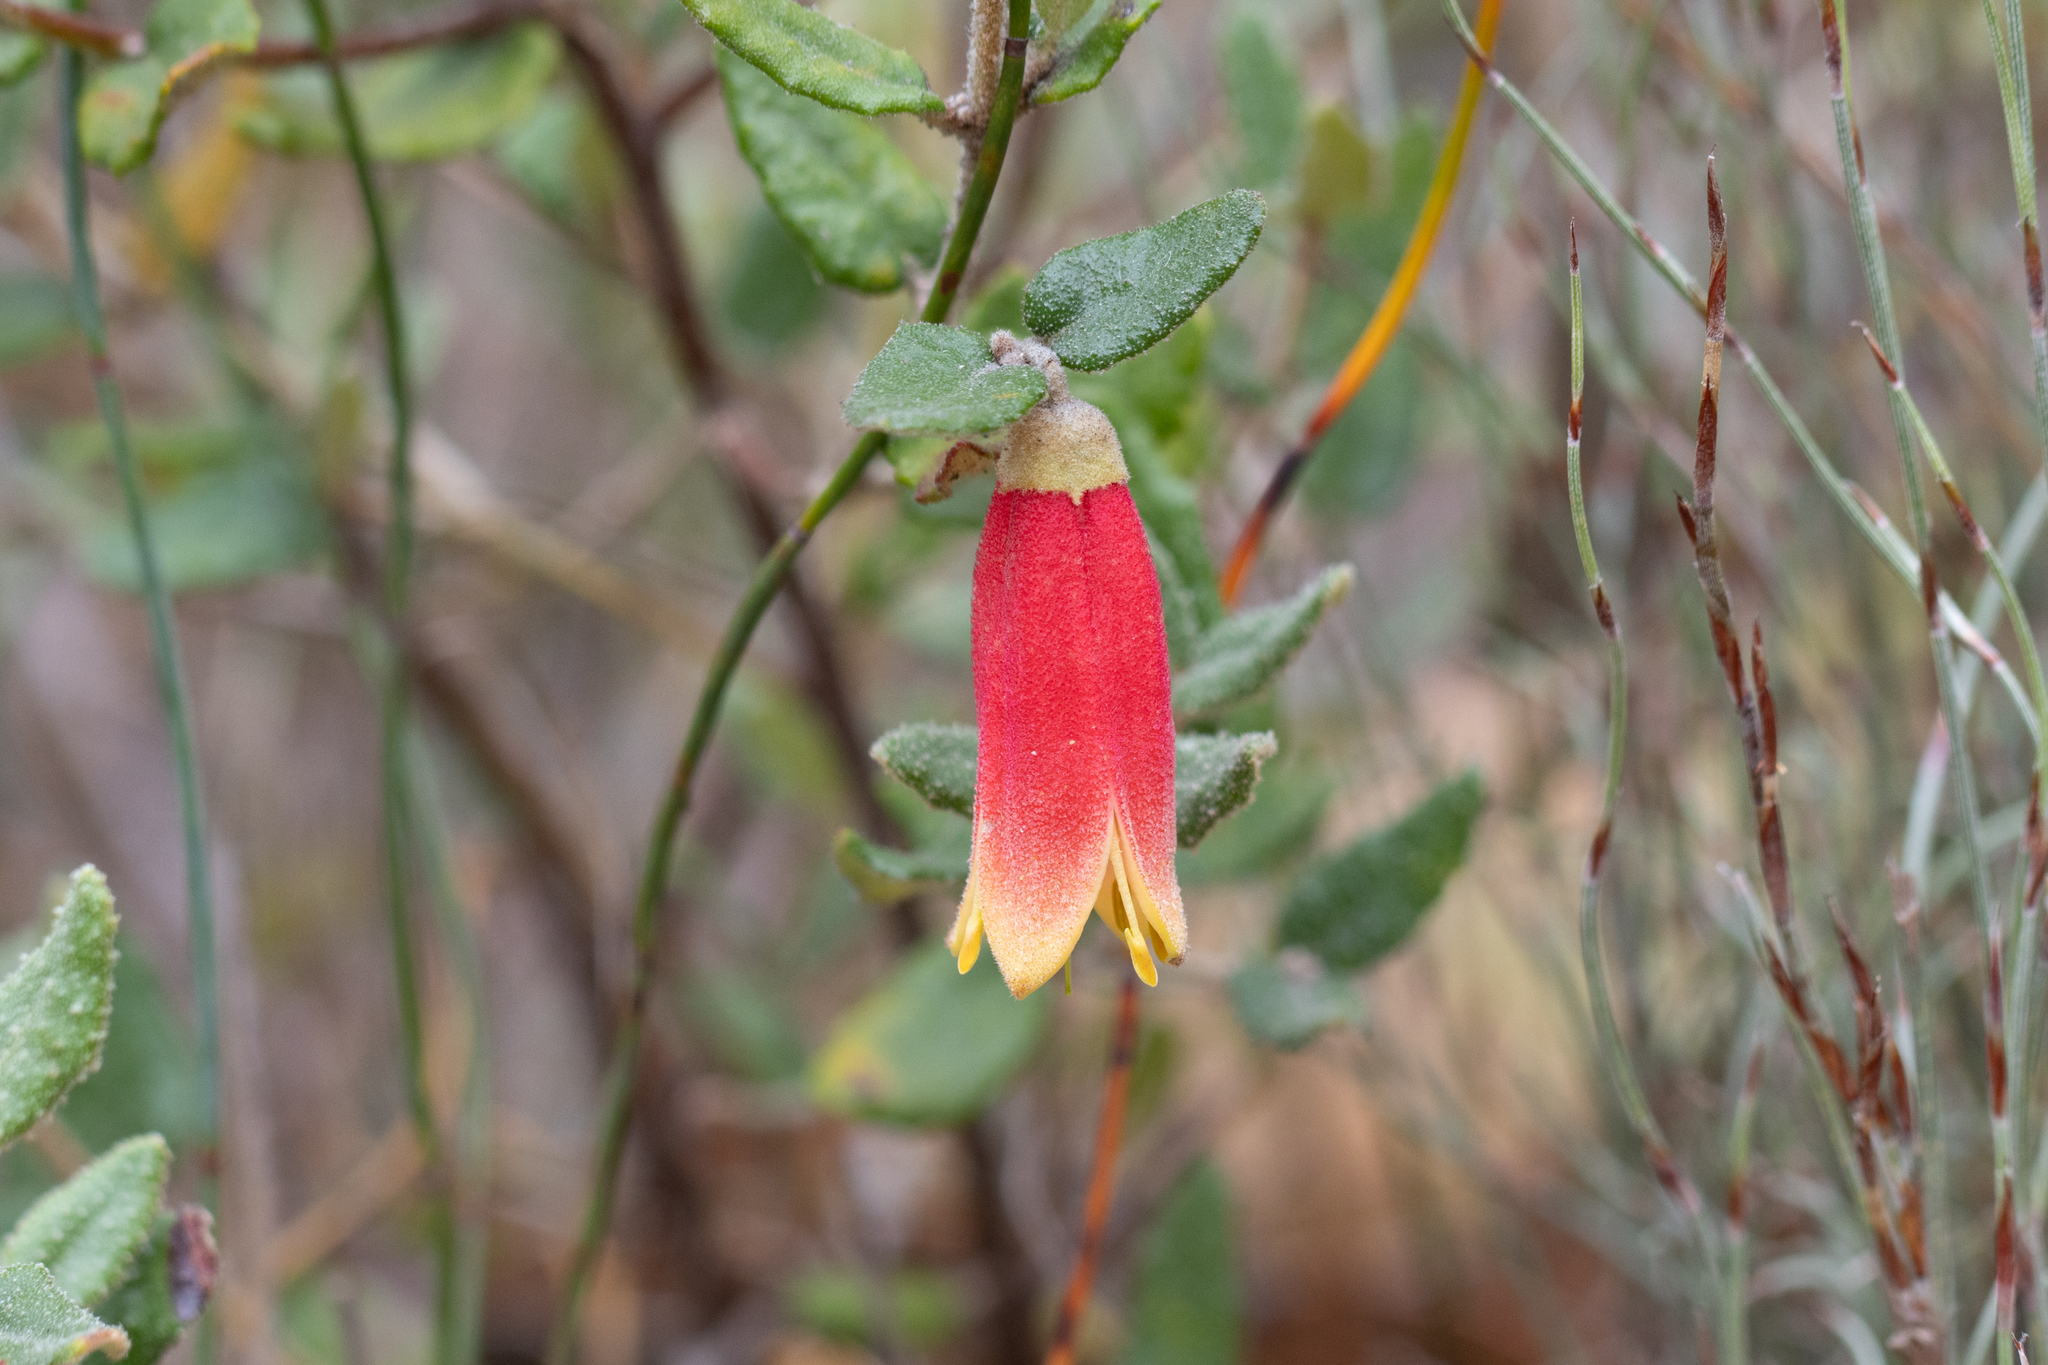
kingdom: Plantae
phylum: Tracheophyta
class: Magnoliopsida
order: Sapindales
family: Rutaceae
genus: Correa
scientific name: Correa reflexa
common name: Common correa
